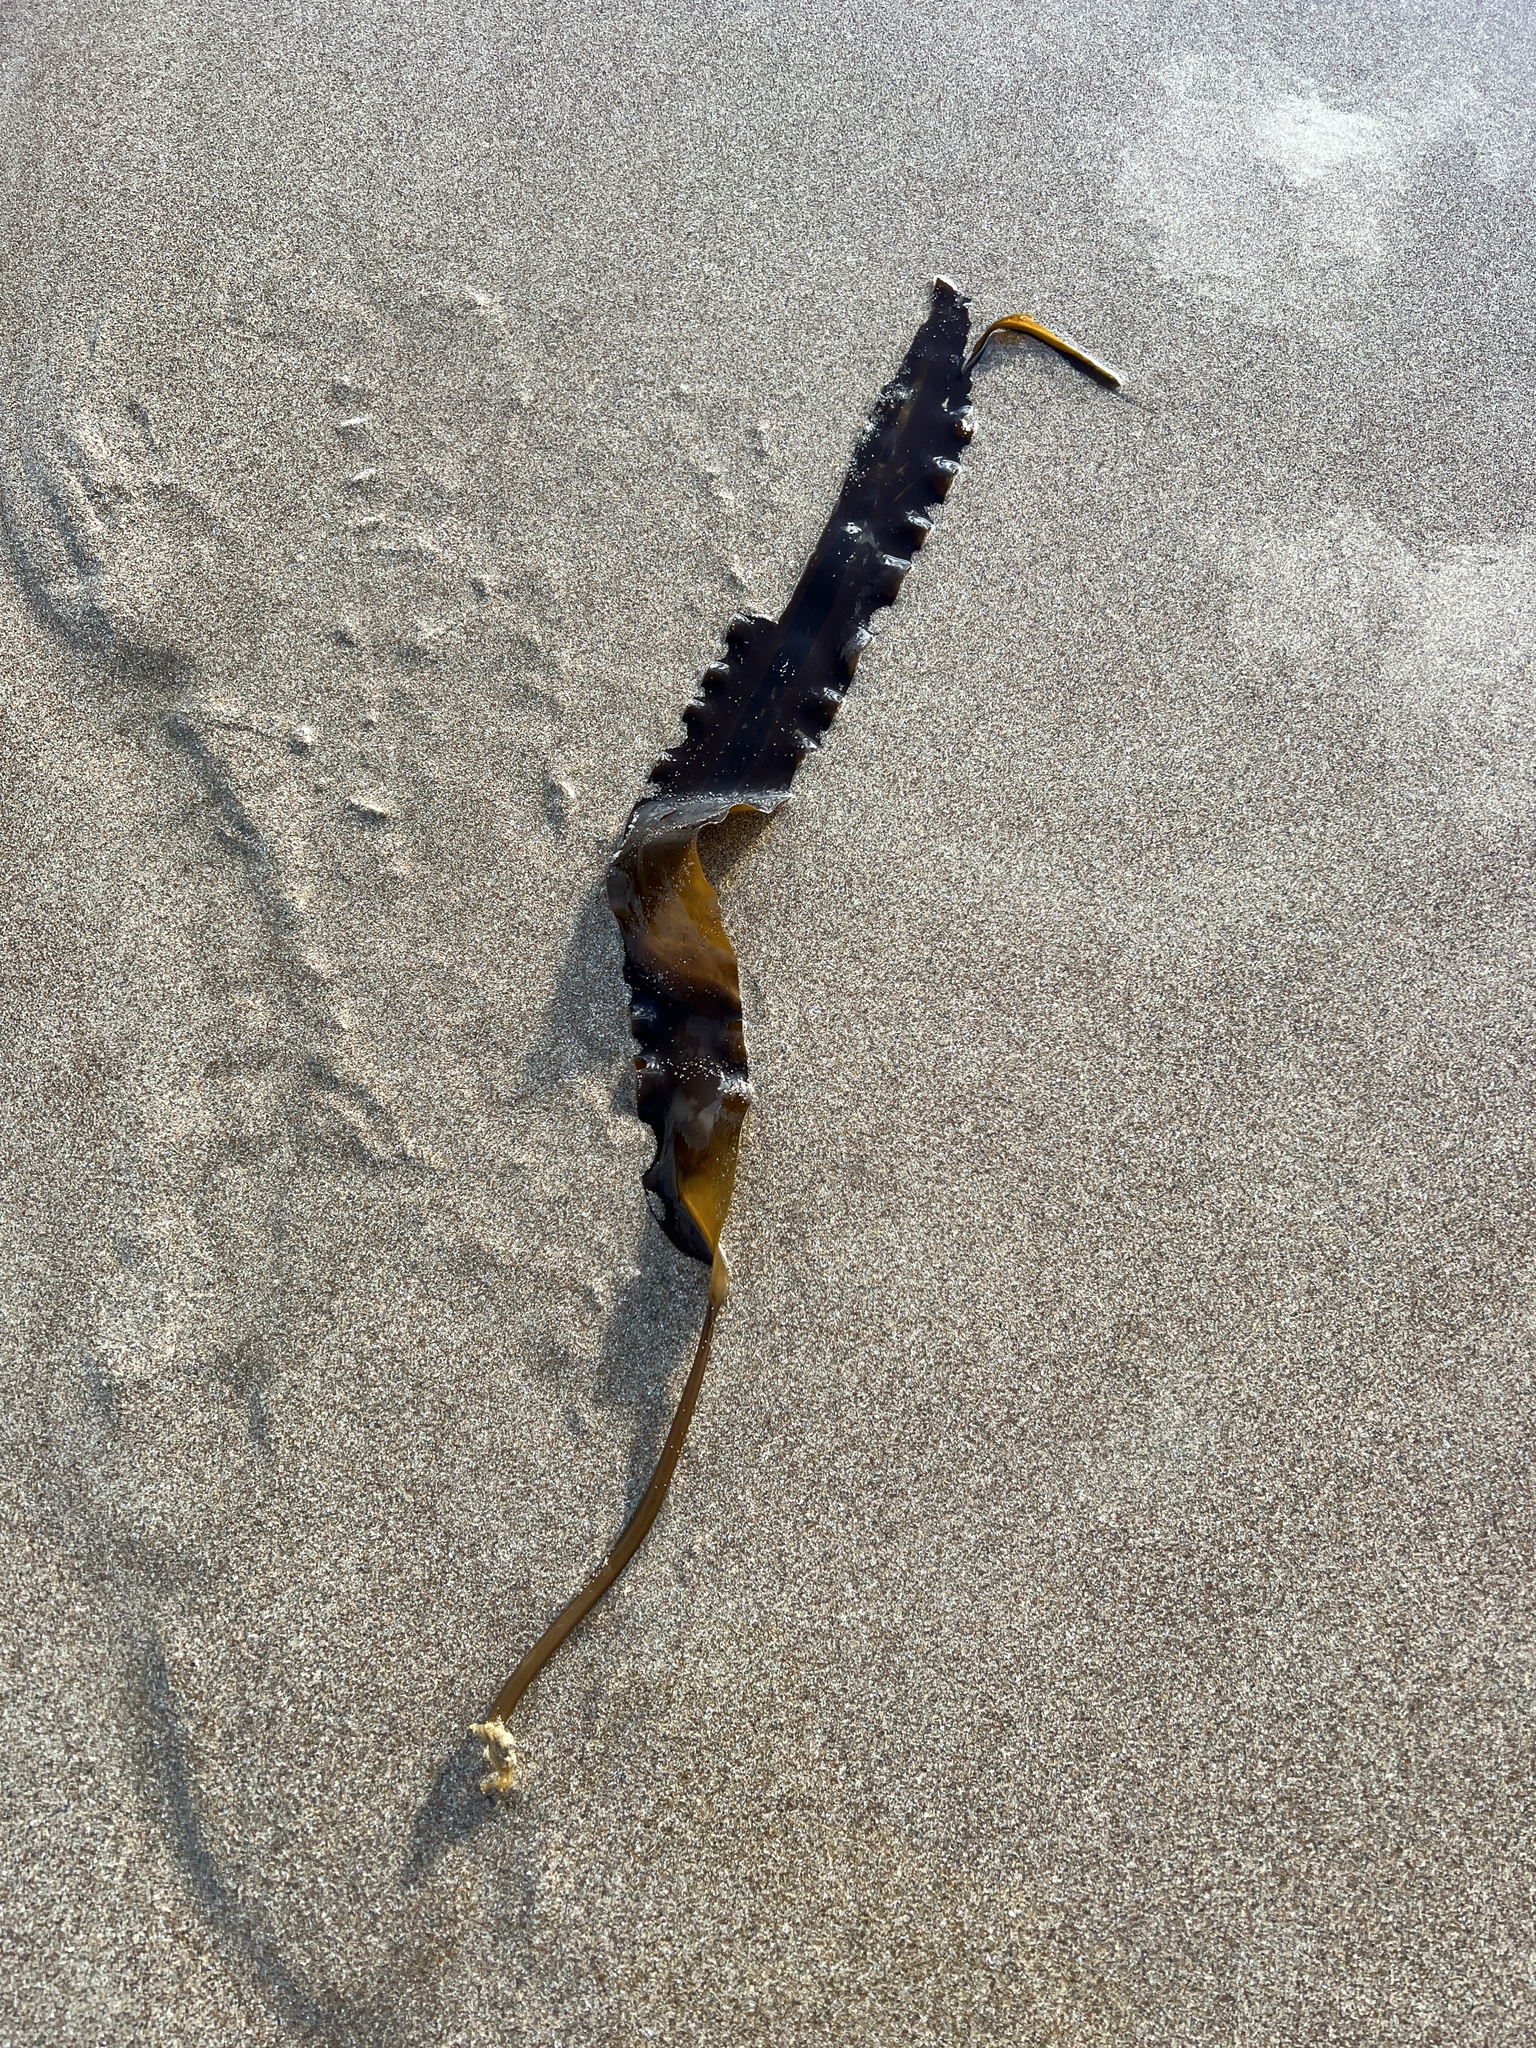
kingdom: Chromista
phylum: Ochrophyta
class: Phaeophyceae
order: Laminariales
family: Laminariaceae
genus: Saccharina
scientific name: Saccharina latissima
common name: Poor man's weather glass
